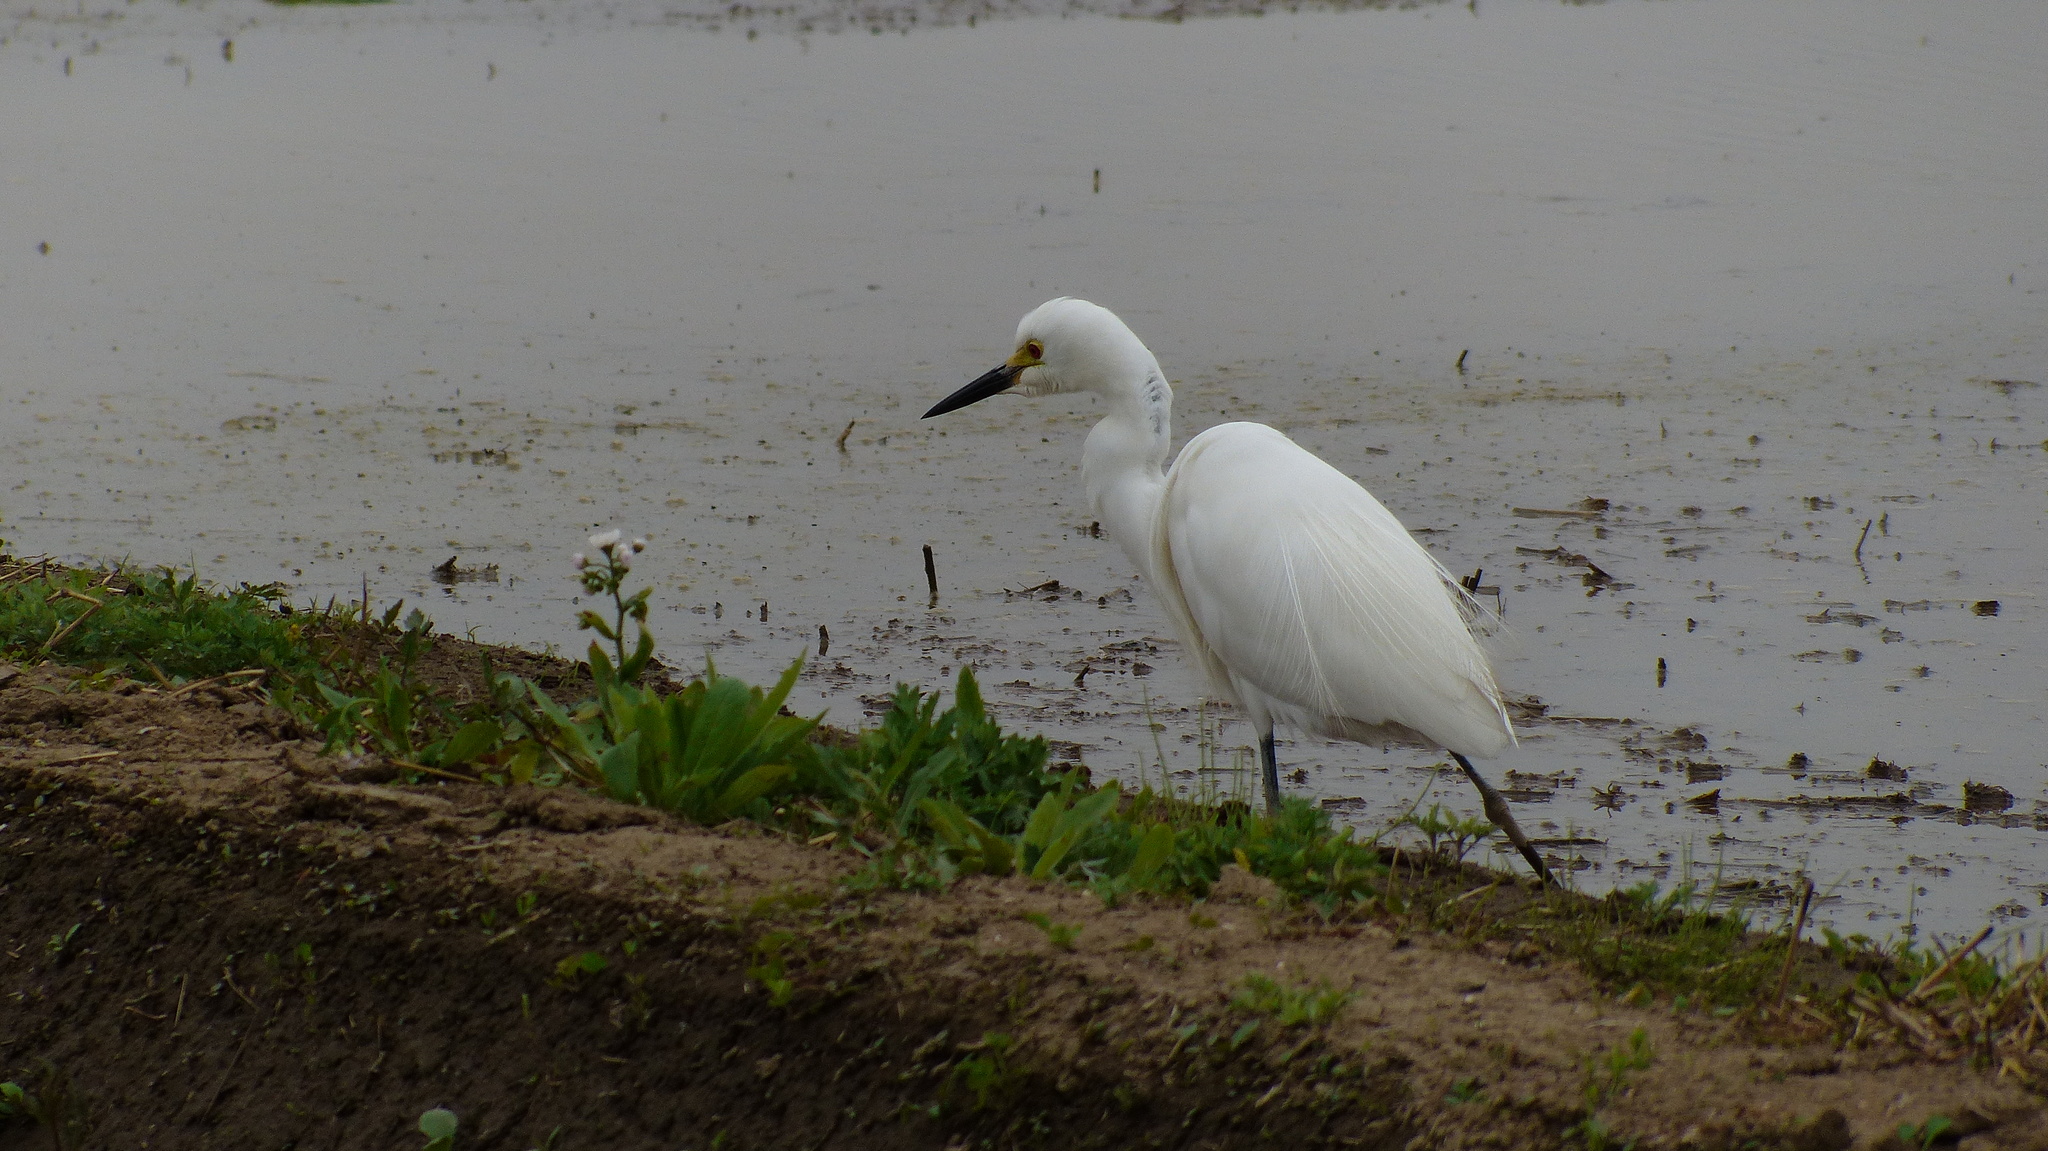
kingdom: Animalia
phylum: Chordata
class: Aves
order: Pelecaniformes
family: Ardeidae
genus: Egretta
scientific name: Egretta intermedia
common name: Intermediate egret
